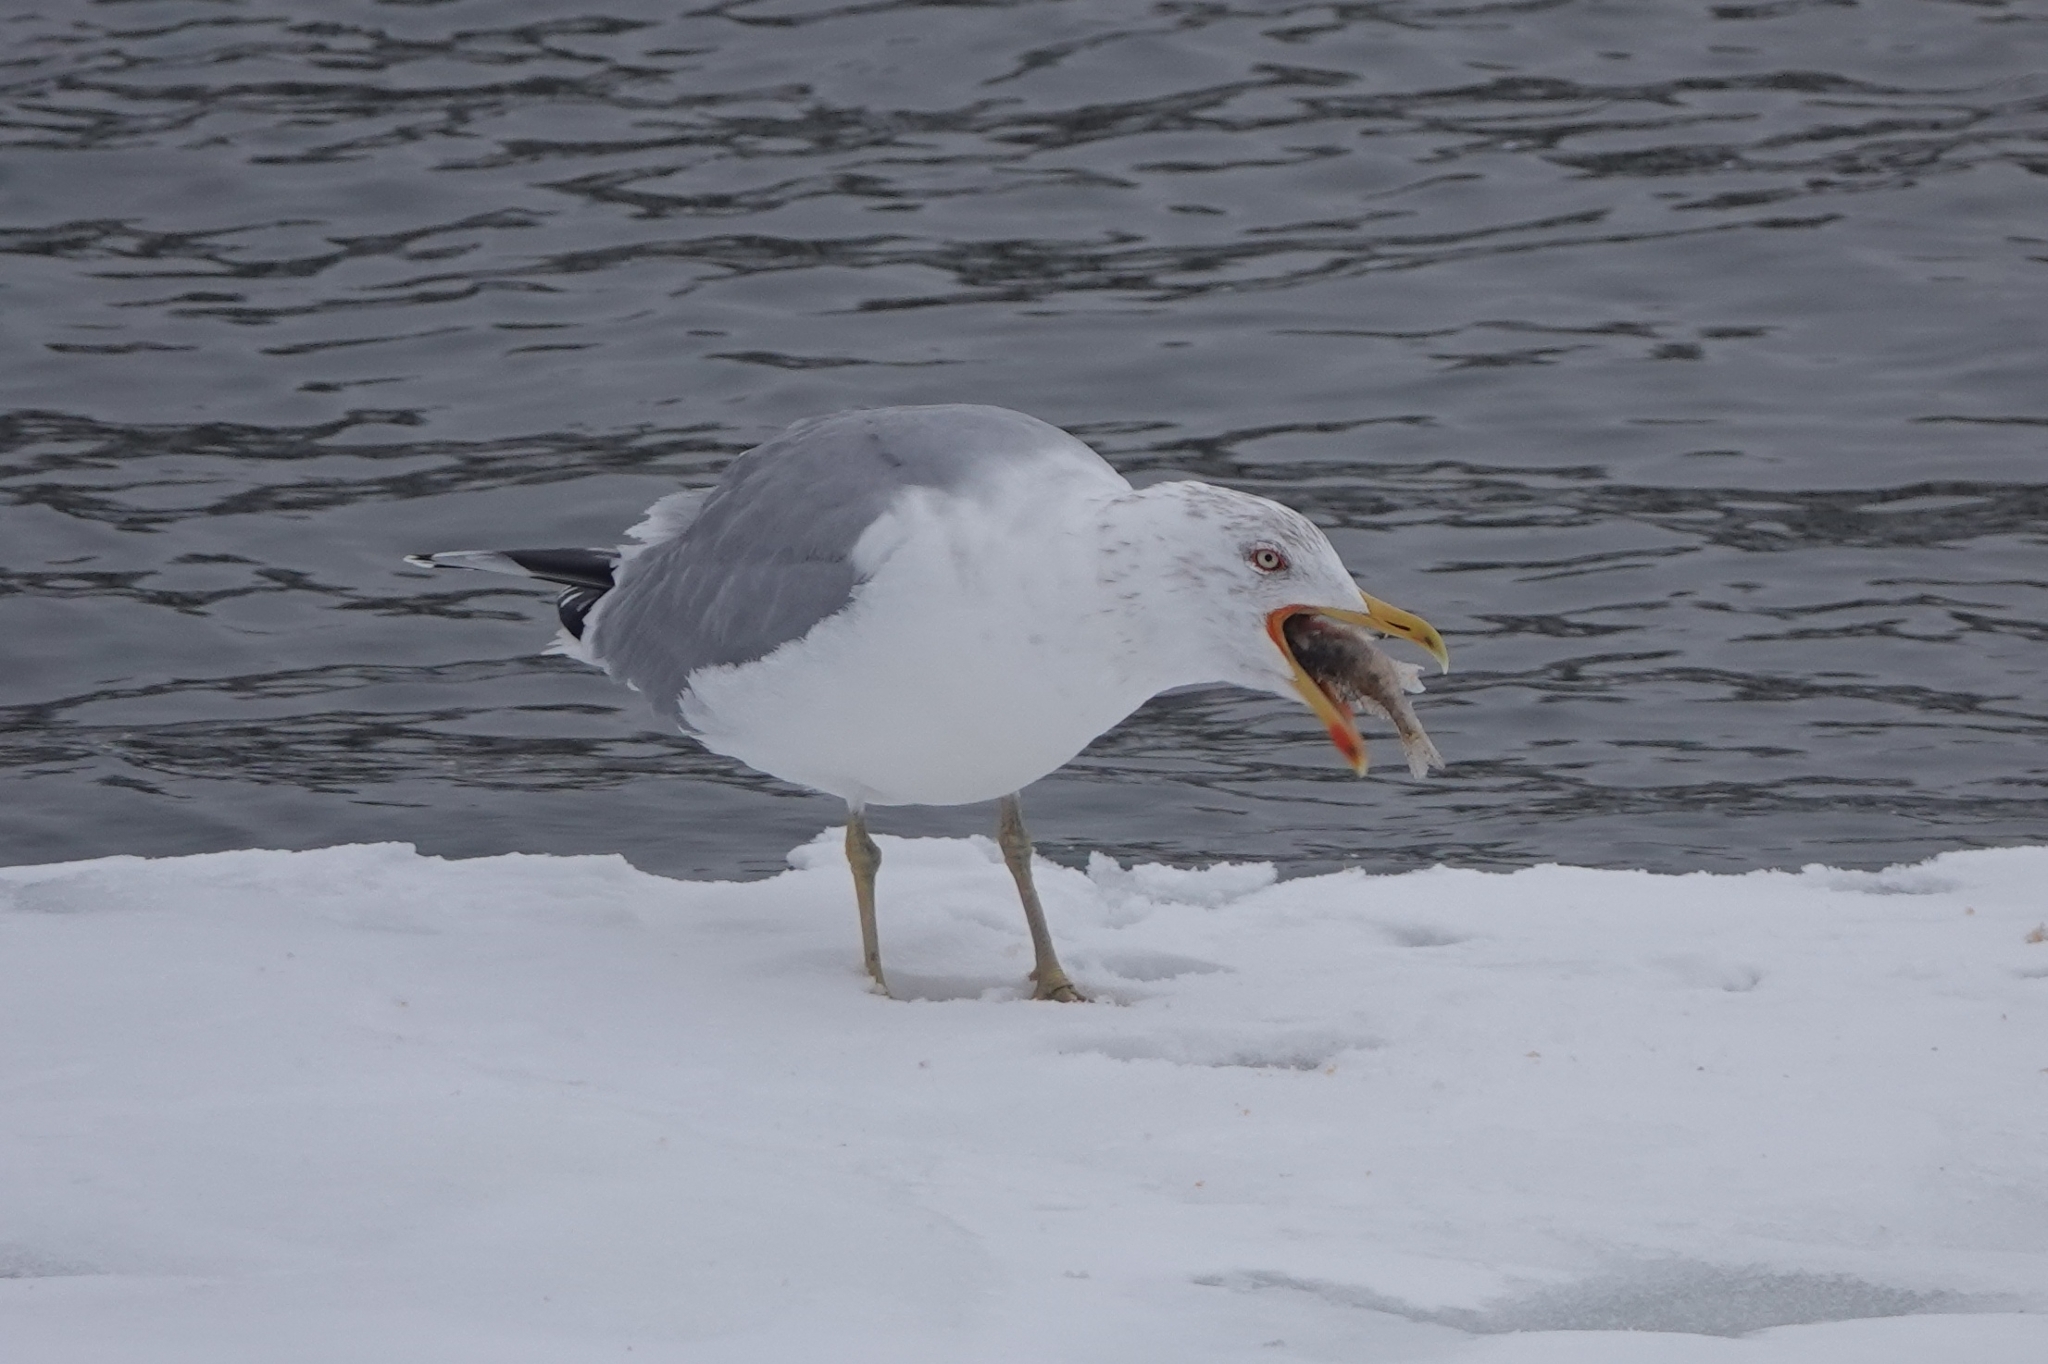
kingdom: Animalia
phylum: Chordata
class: Aves
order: Charadriiformes
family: Laridae
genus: Larus
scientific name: Larus argentatus
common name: Herring gull
